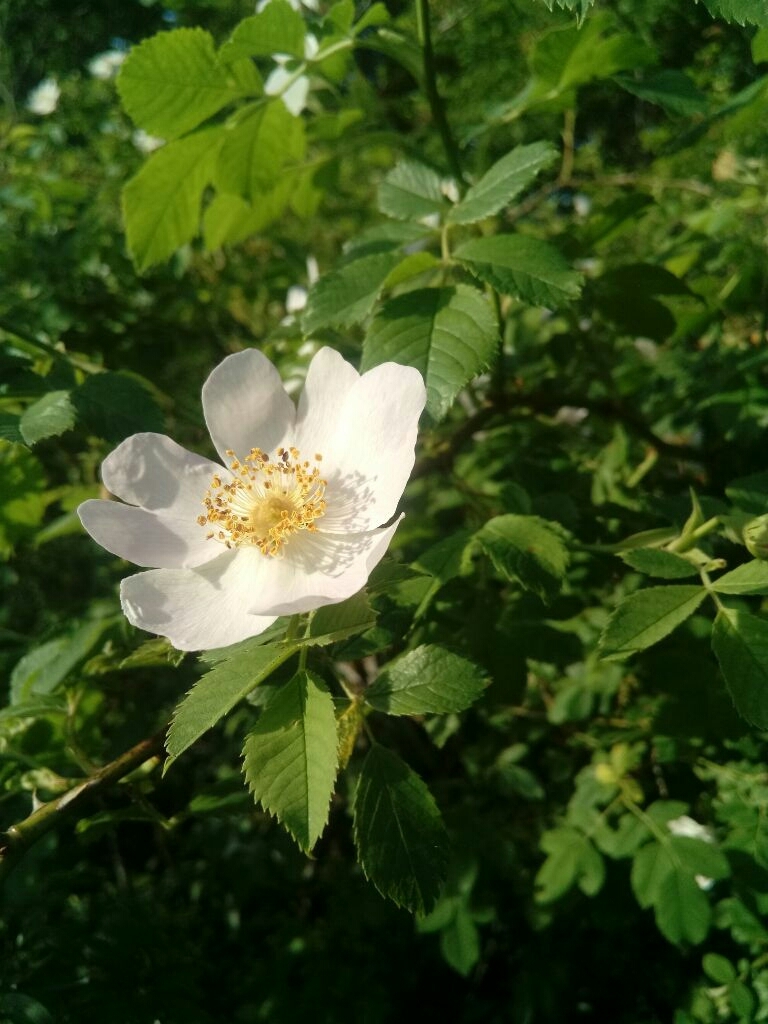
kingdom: Plantae
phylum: Tracheophyta
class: Magnoliopsida
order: Rosales
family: Rosaceae
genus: Rosa
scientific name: Rosa canina
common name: Dog rose
